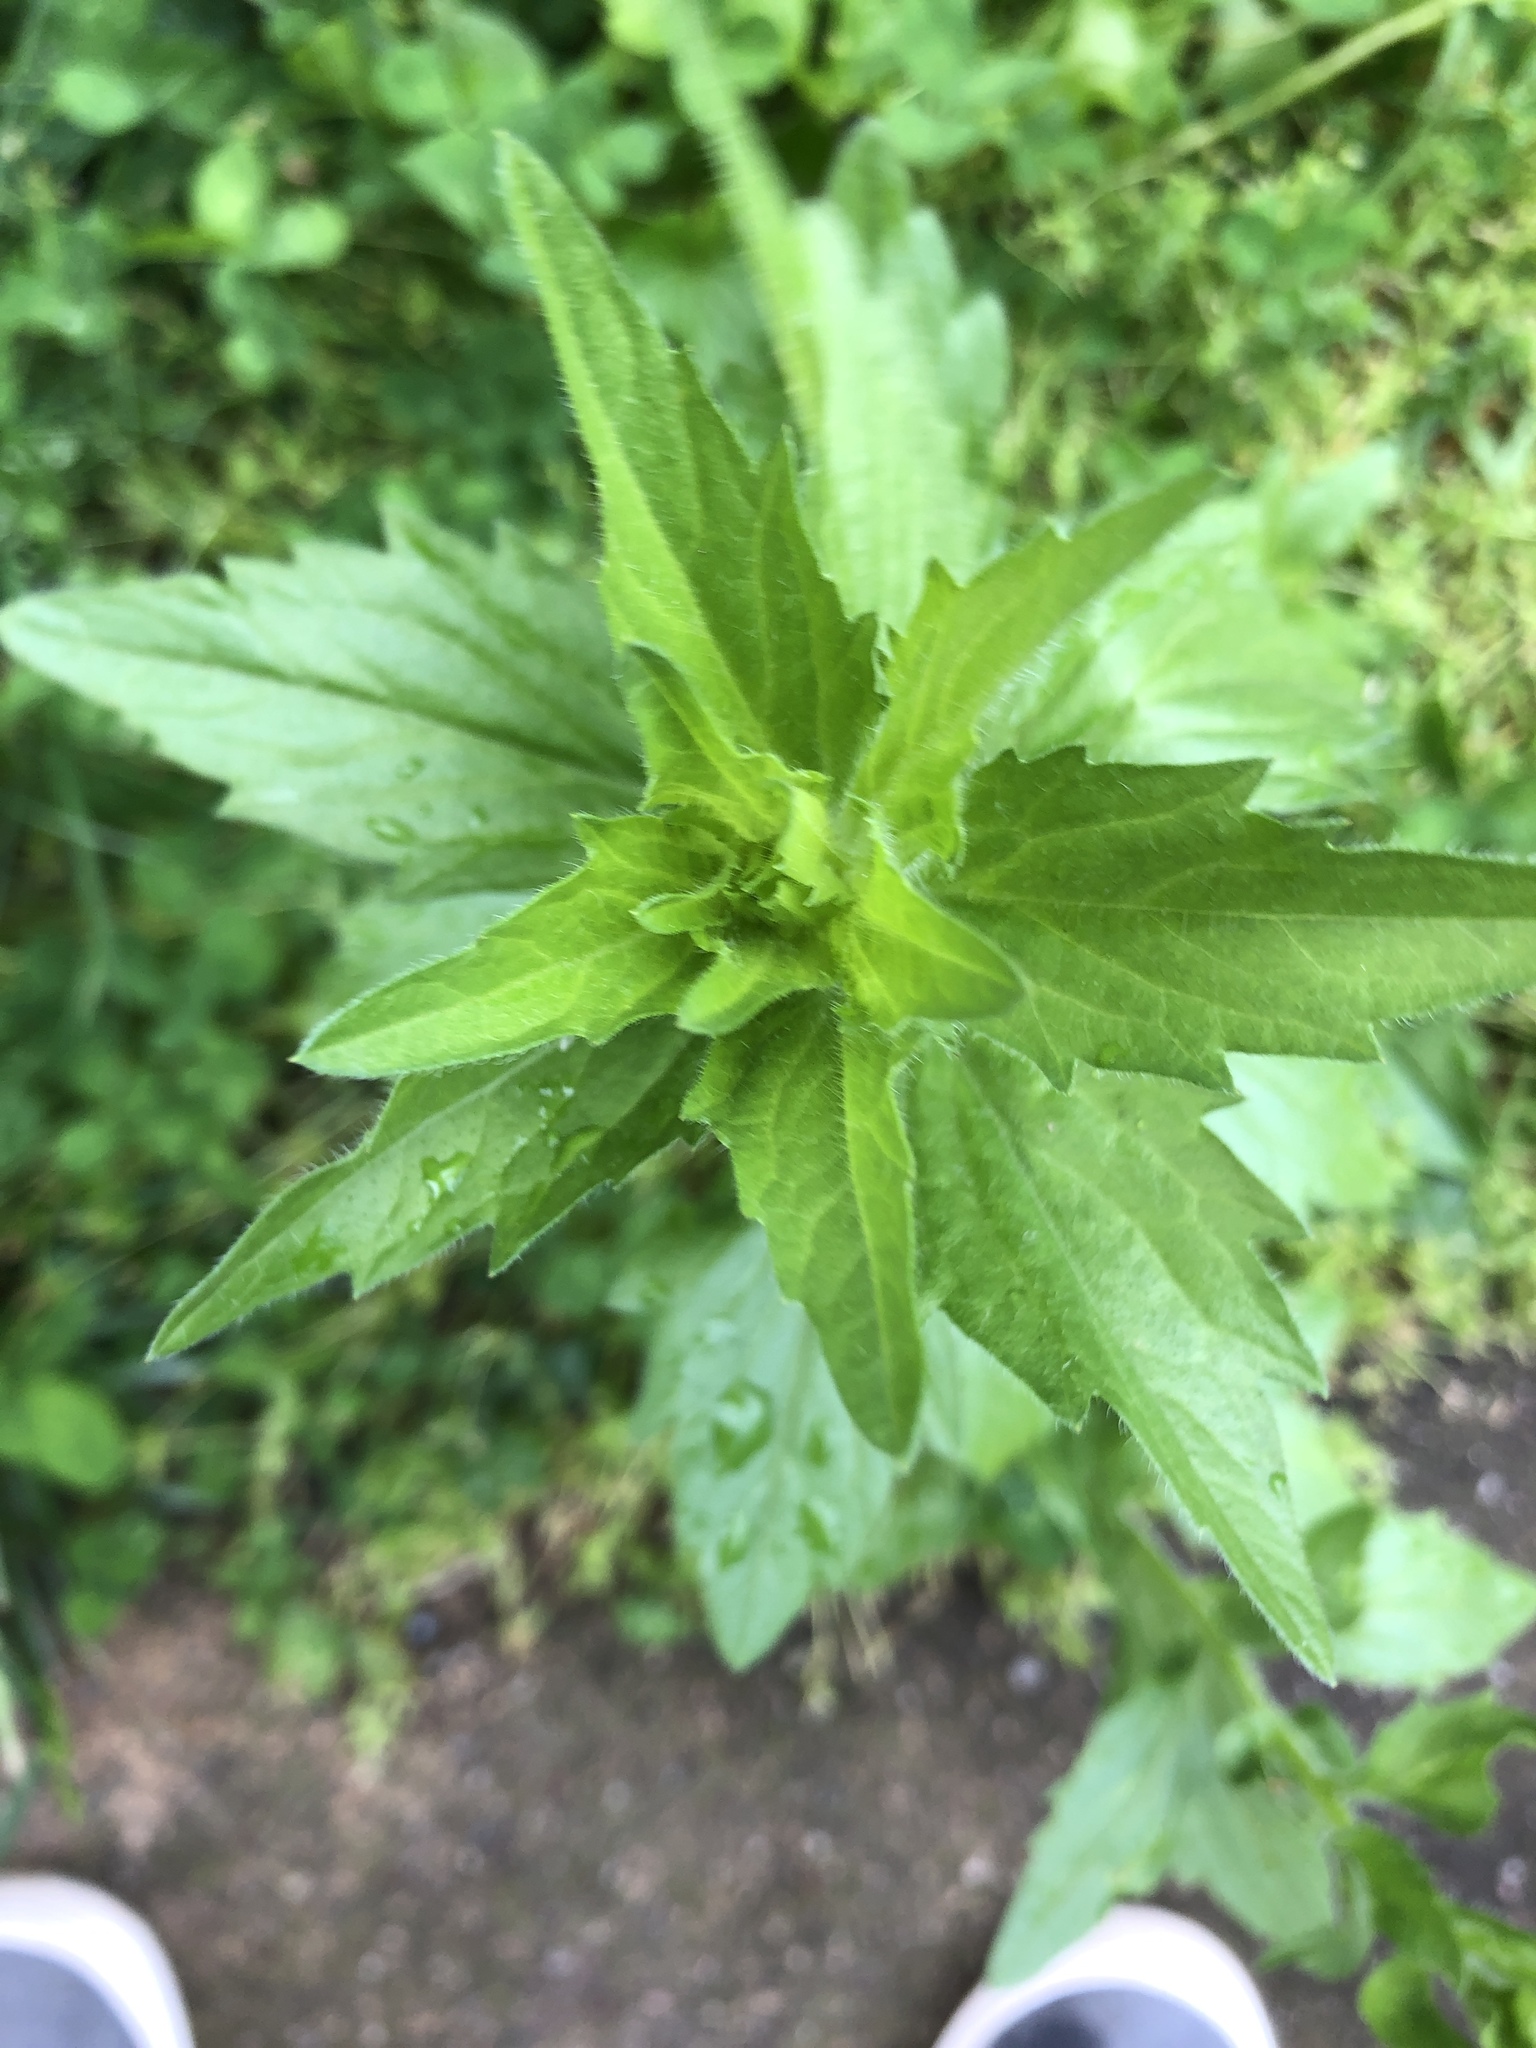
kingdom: Plantae
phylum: Tracheophyta
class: Magnoliopsida
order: Asterales
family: Asteraceae
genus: Erigeron
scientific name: Erigeron annuus
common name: Tall fleabane
